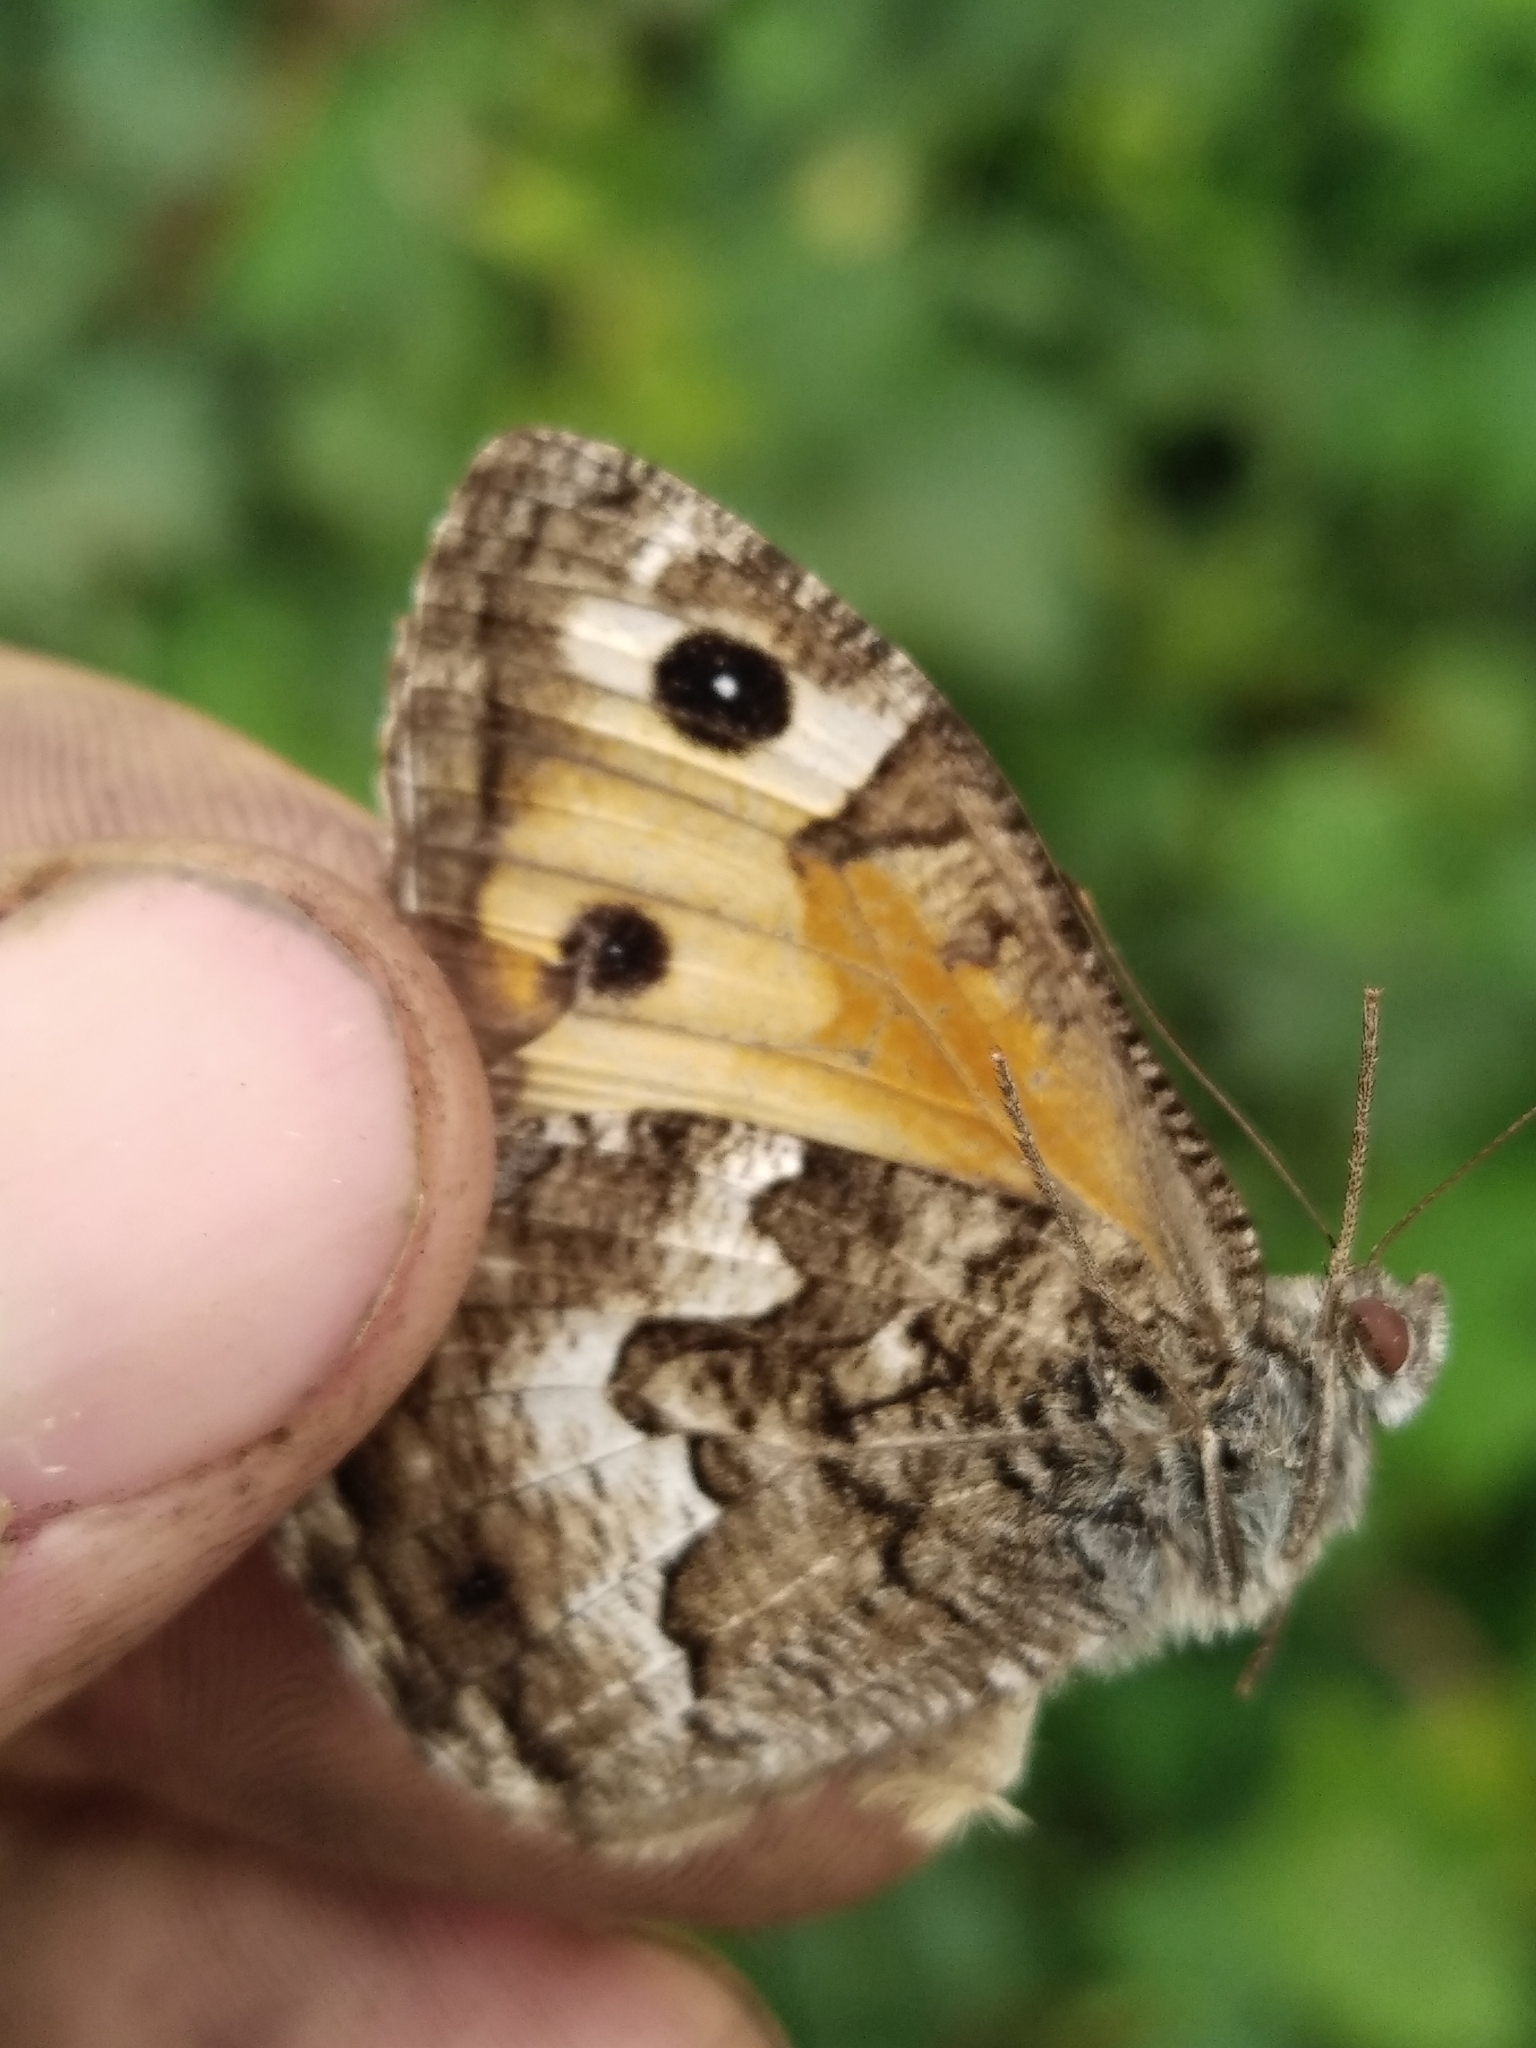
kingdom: Animalia
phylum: Arthropoda
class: Insecta
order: Lepidoptera
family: Nymphalidae
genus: Hipparchia
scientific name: Hipparchia semele
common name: Grayling
